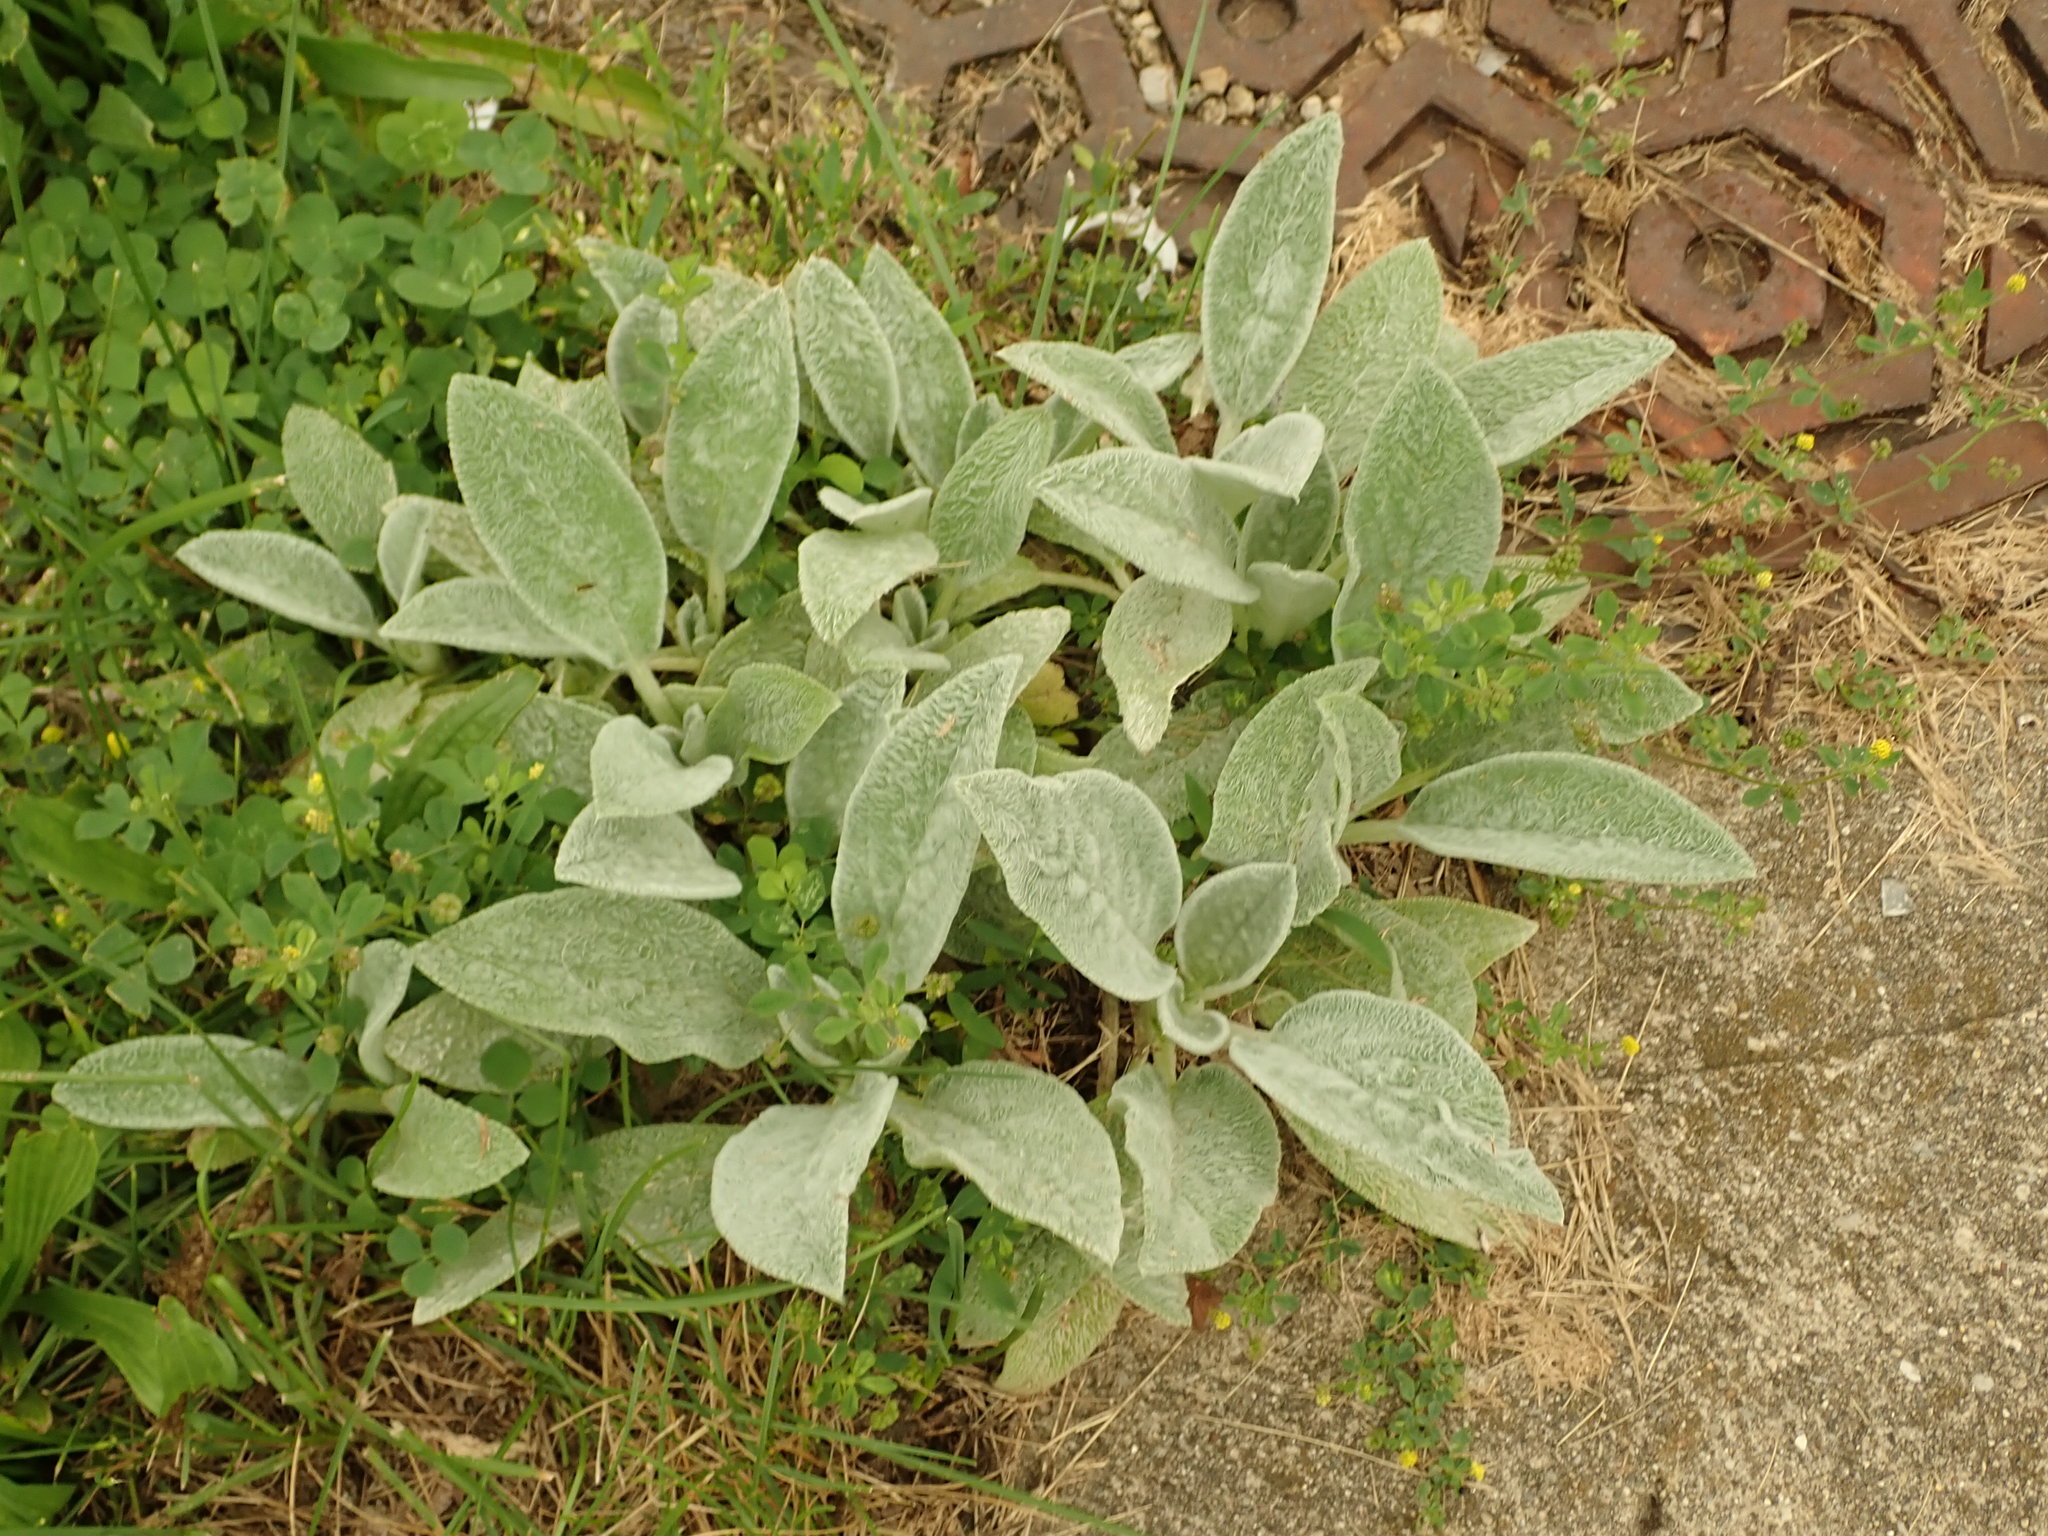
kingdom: Plantae
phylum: Tracheophyta
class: Magnoliopsida
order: Lamiales
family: Lamiaceae
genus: Stachys
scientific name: Stachys byzantina
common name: Lamb's-ear
